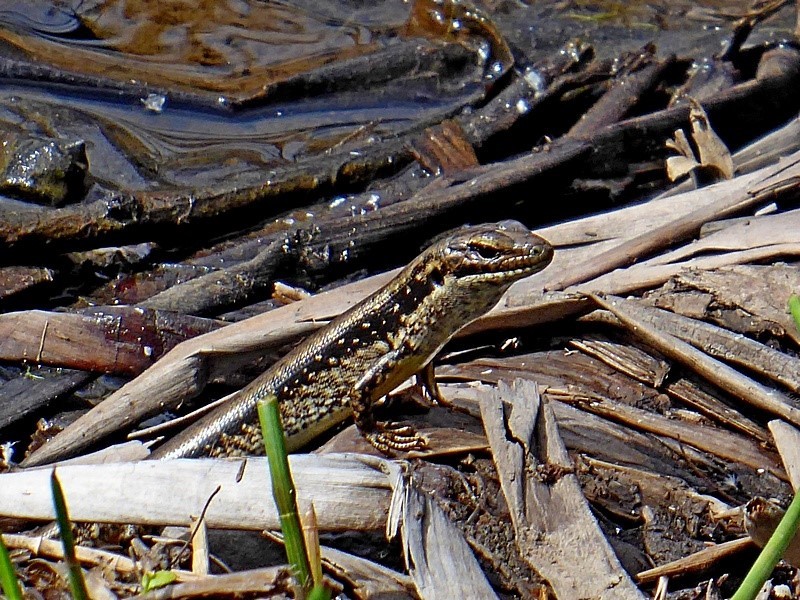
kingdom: Animalia
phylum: Chordata
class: Squamata
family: Scincidae
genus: Eulamprus
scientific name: Eulamprus heatwolei
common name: Warm-temperate water-skink
